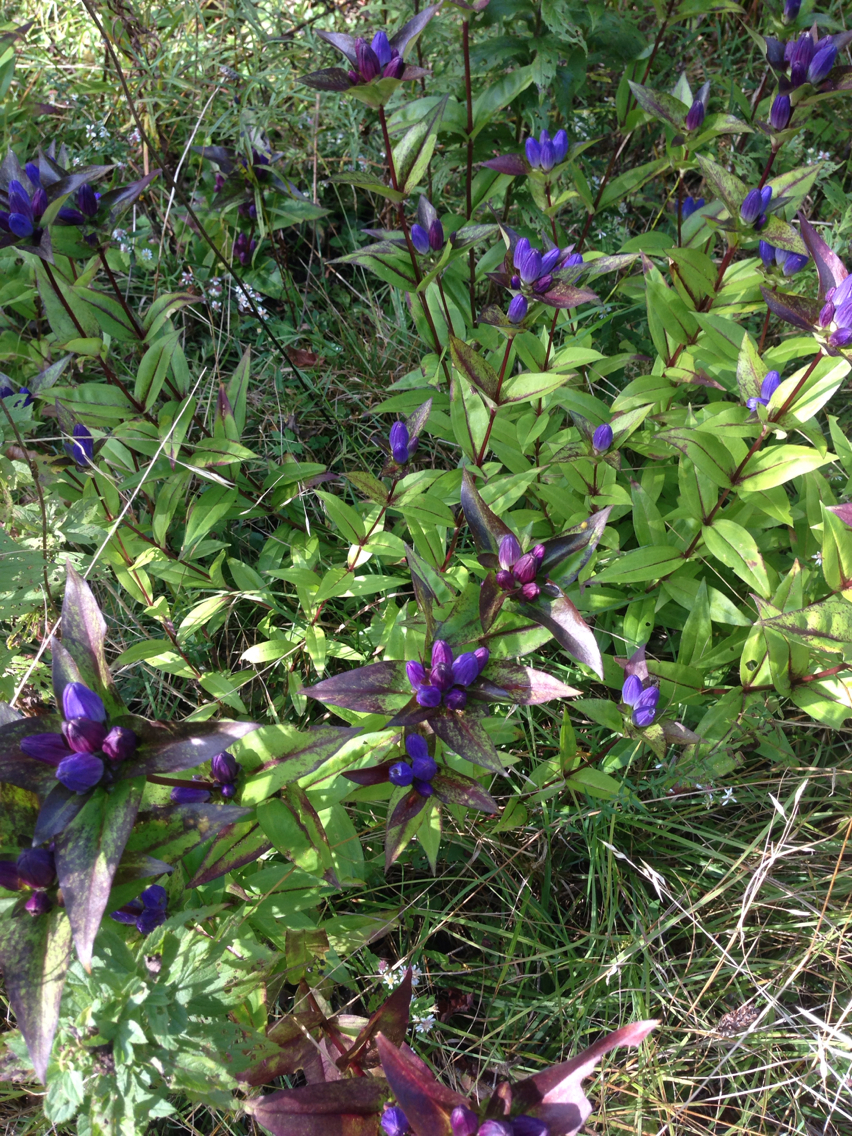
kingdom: Plantae
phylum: Tracheophyta
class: Magnoliopsida
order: Gentianales
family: Gentianaceae
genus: Gentiana
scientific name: Gentiana clausa
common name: Blind gentian
